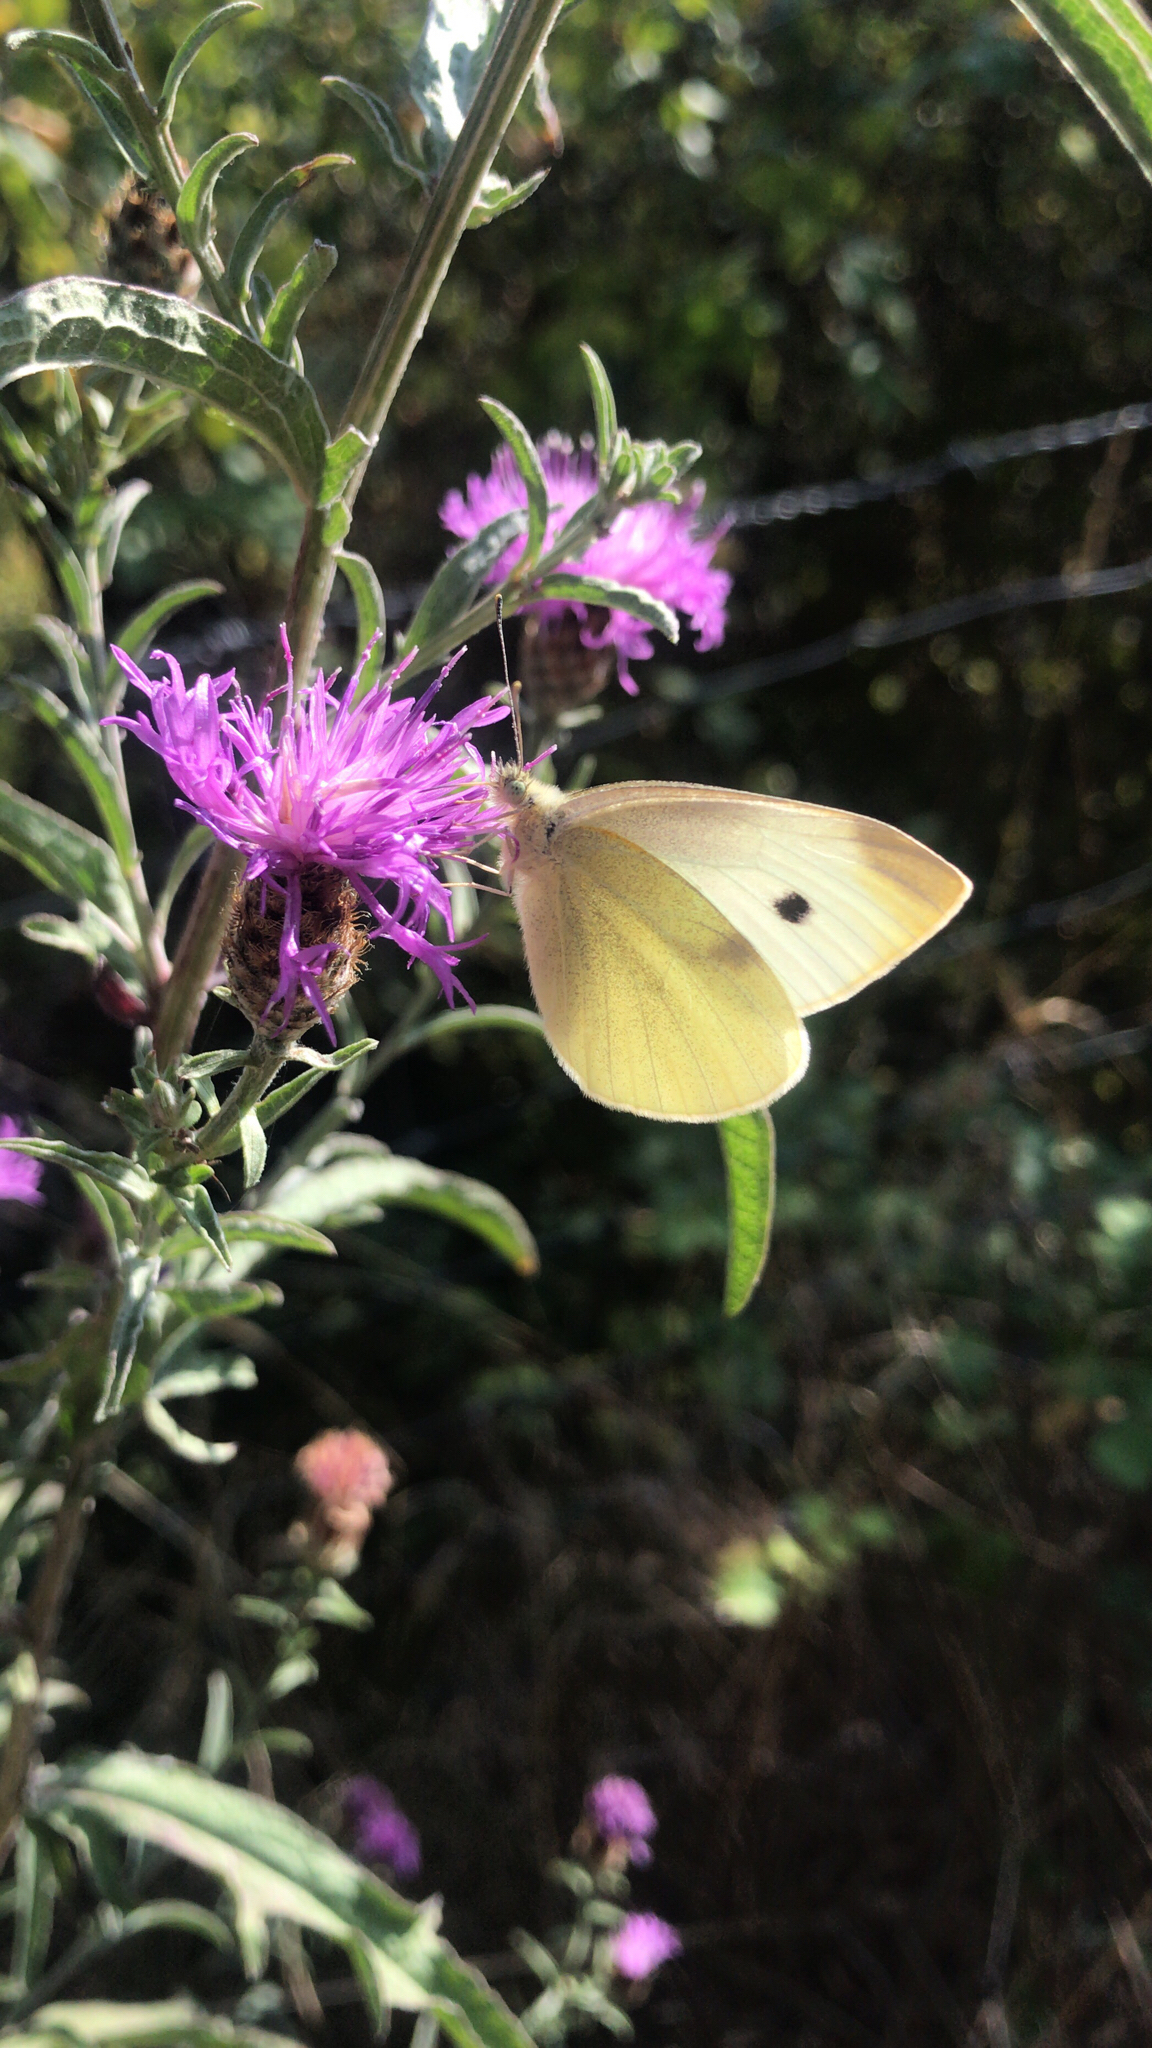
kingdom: Animalia
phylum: Arthropoda
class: Insecta
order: Lepidoptera
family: Pieridae
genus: Pieris
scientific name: Pieris rapae
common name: Small white
